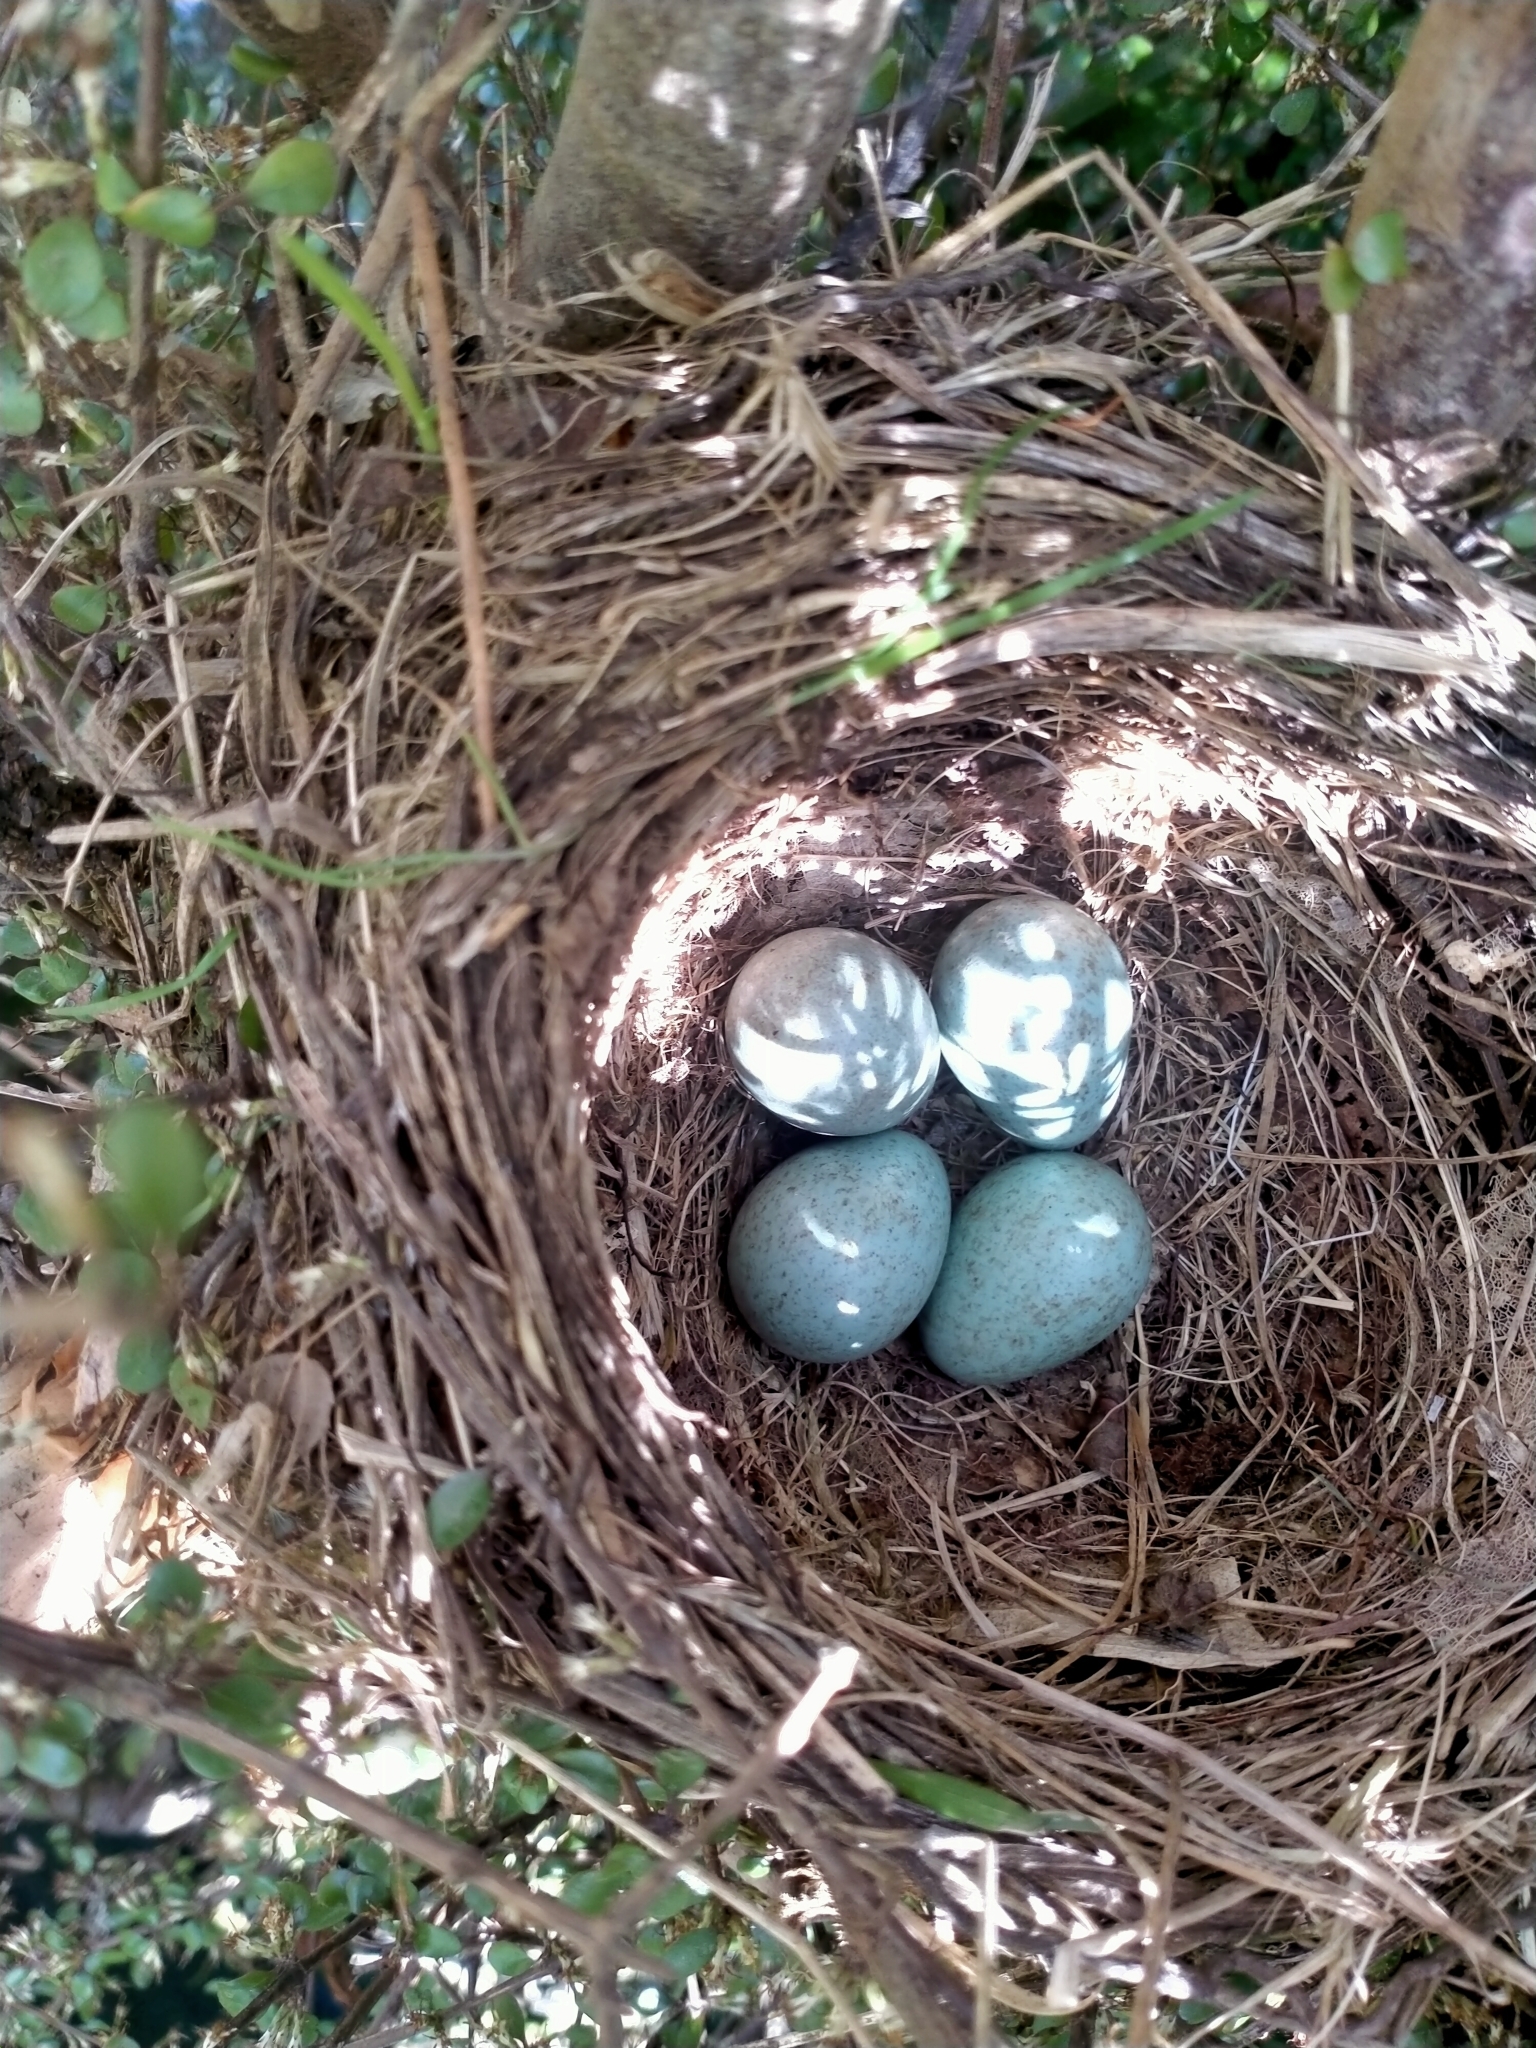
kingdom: Animalia
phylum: Chordata
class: Aves
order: Passeriformes
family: Turdidae
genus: Turdus
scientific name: Turdus merula
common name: Common blackbird
